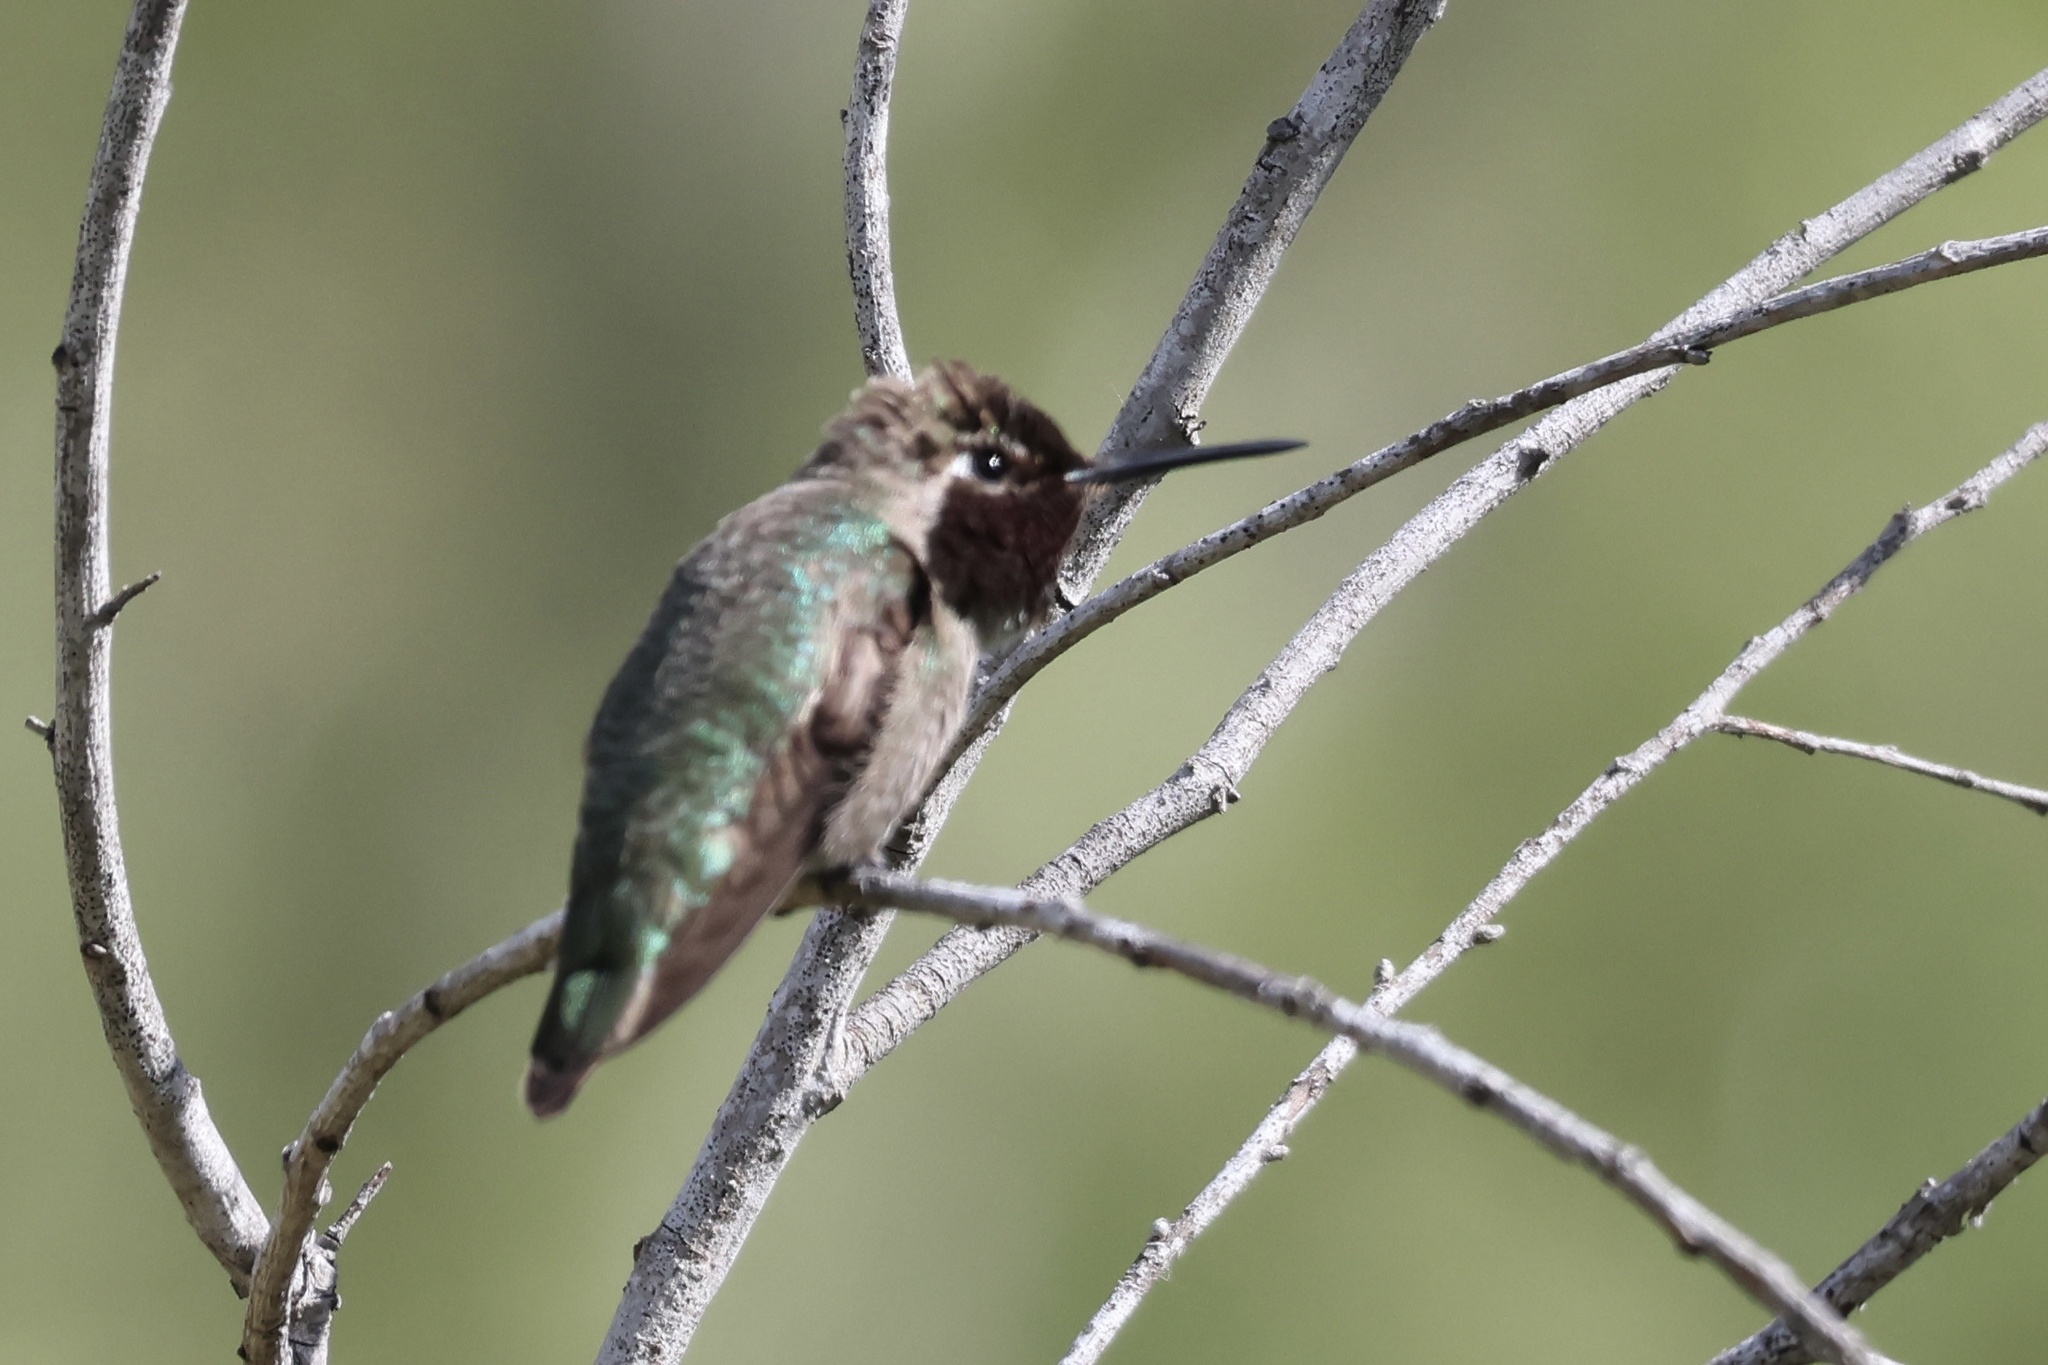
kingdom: Animalia
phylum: Chordata
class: Aves
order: Apodiformes
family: Trochilidae
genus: Calypte
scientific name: Calypte anna
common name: Anna's hummingbird
